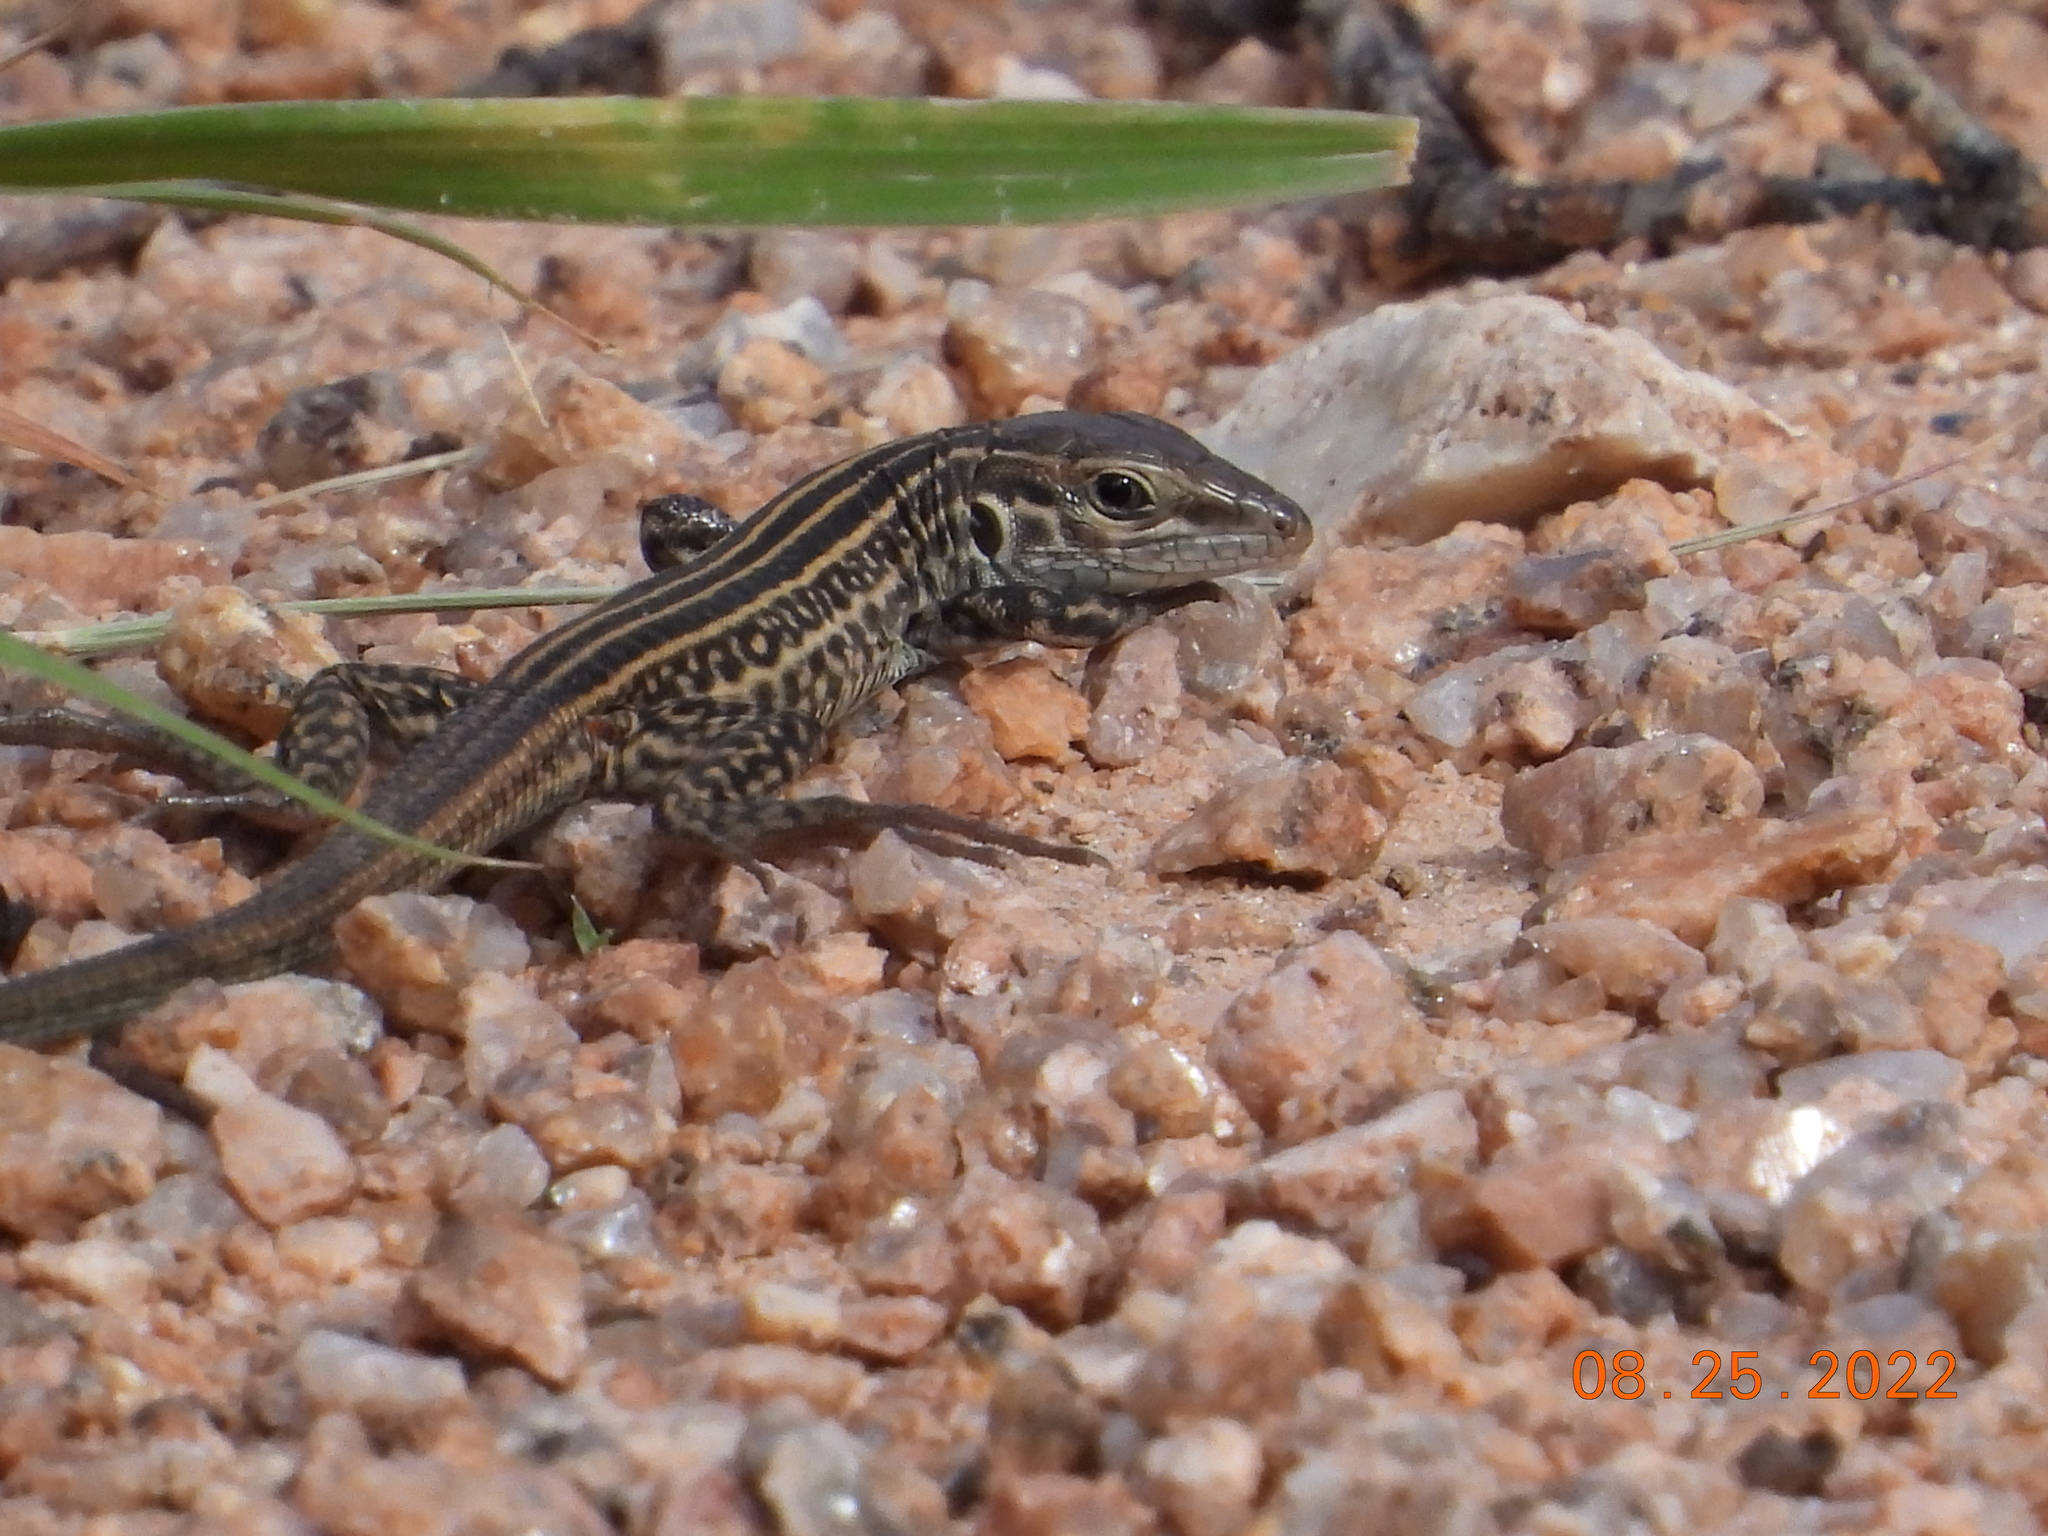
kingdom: Animalia
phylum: Chordata
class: Squamata
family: Teiidae
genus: Aspidoscelis
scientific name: Aspidoscelis tigris
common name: Tiger whiptail
